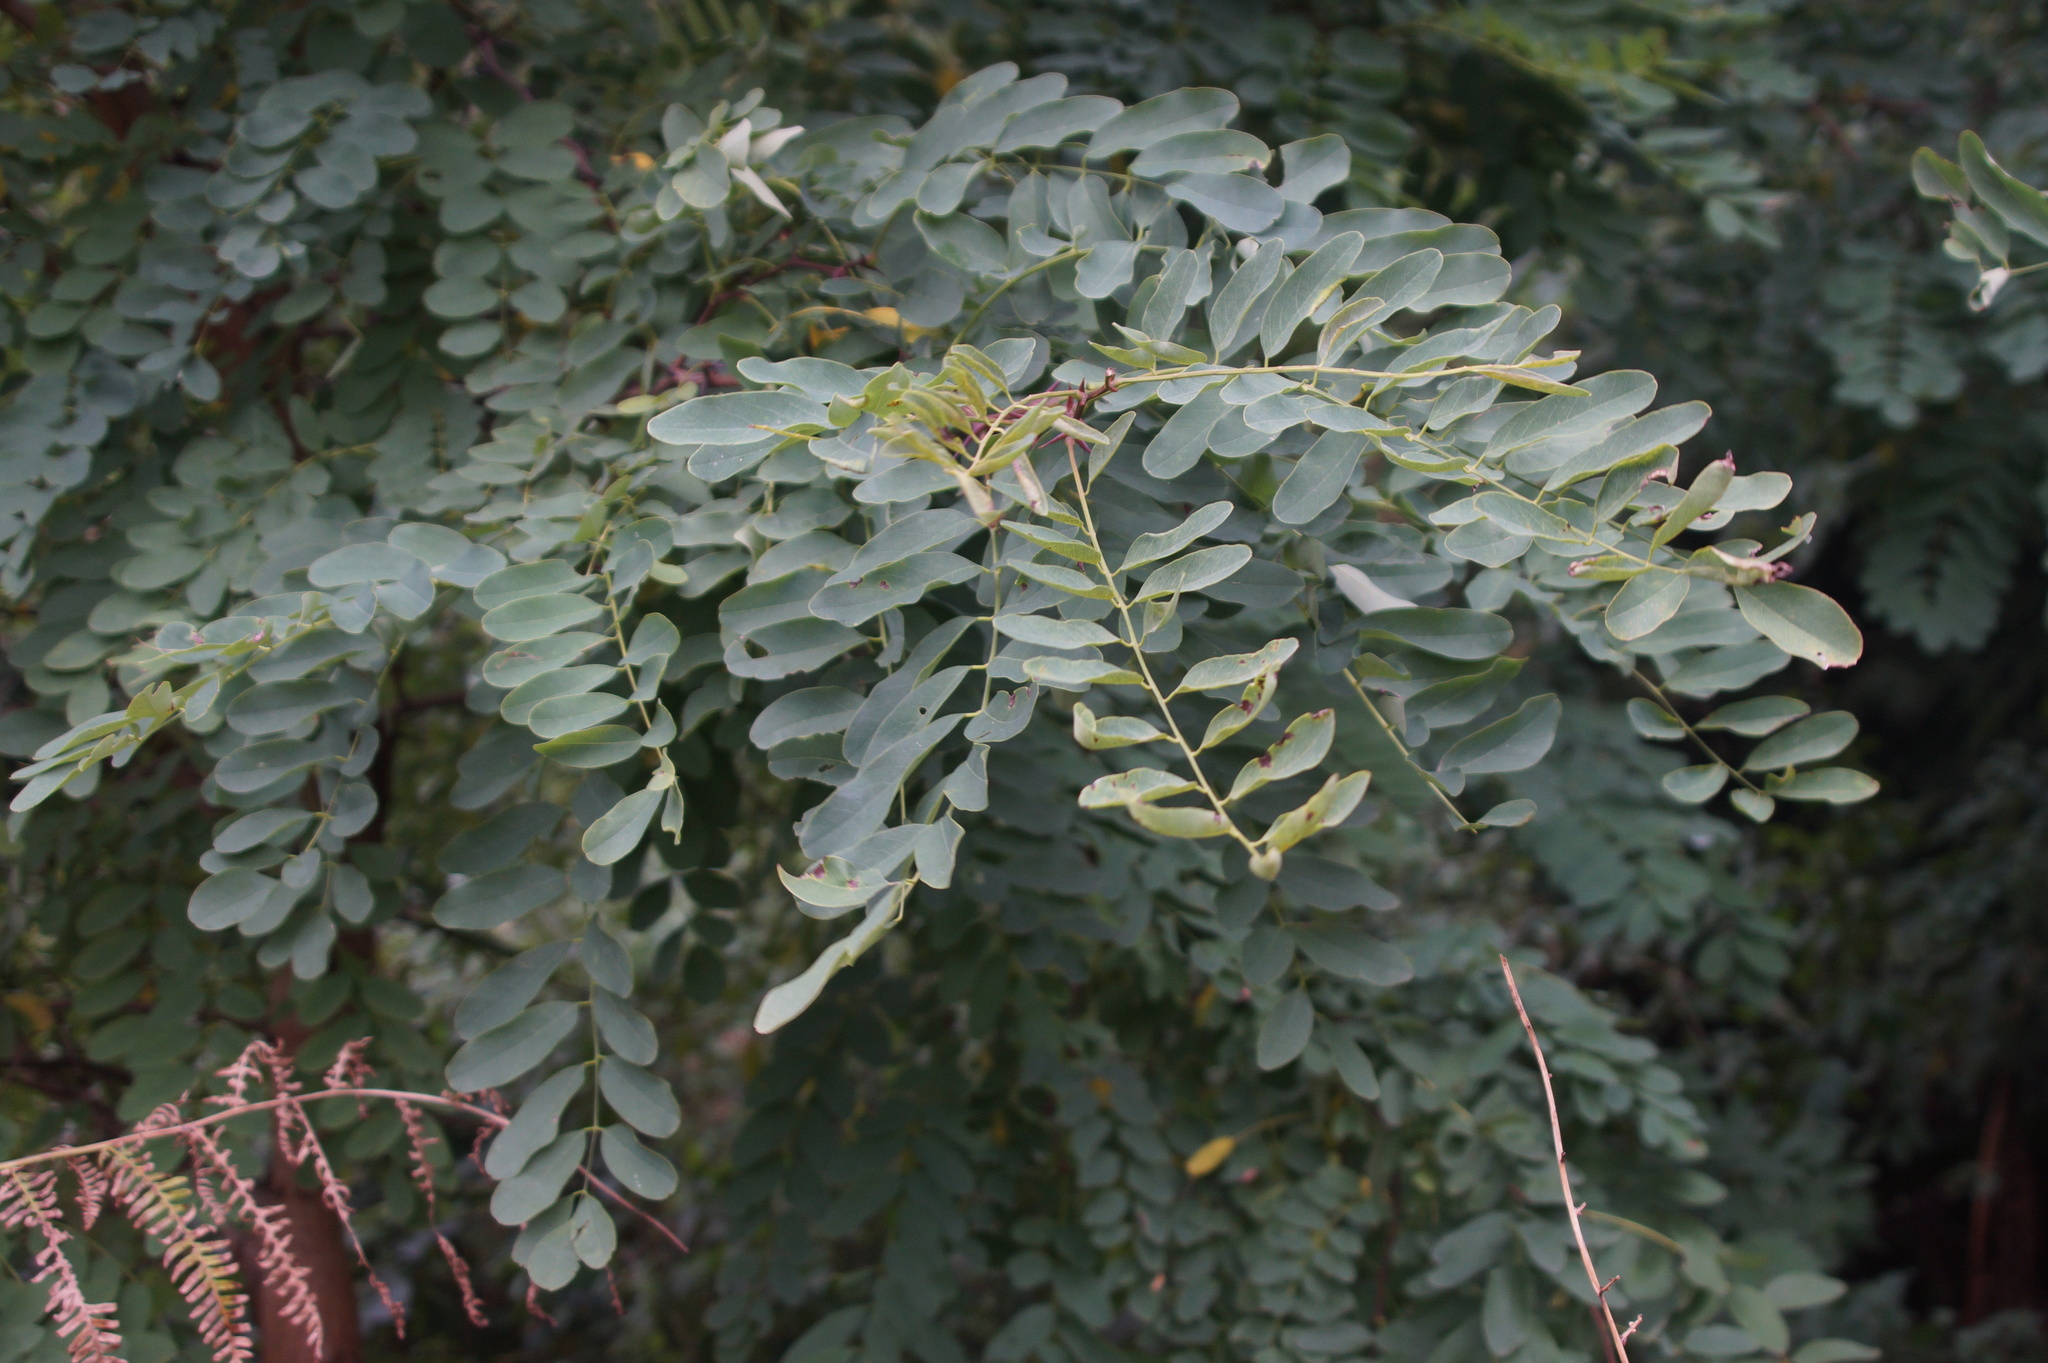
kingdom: Plantae
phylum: Tracheophyta
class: Magnoliopsida
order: Fabales
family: Fabaceae
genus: Robinia
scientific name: Robinia pseudoacacia
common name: Black locust
